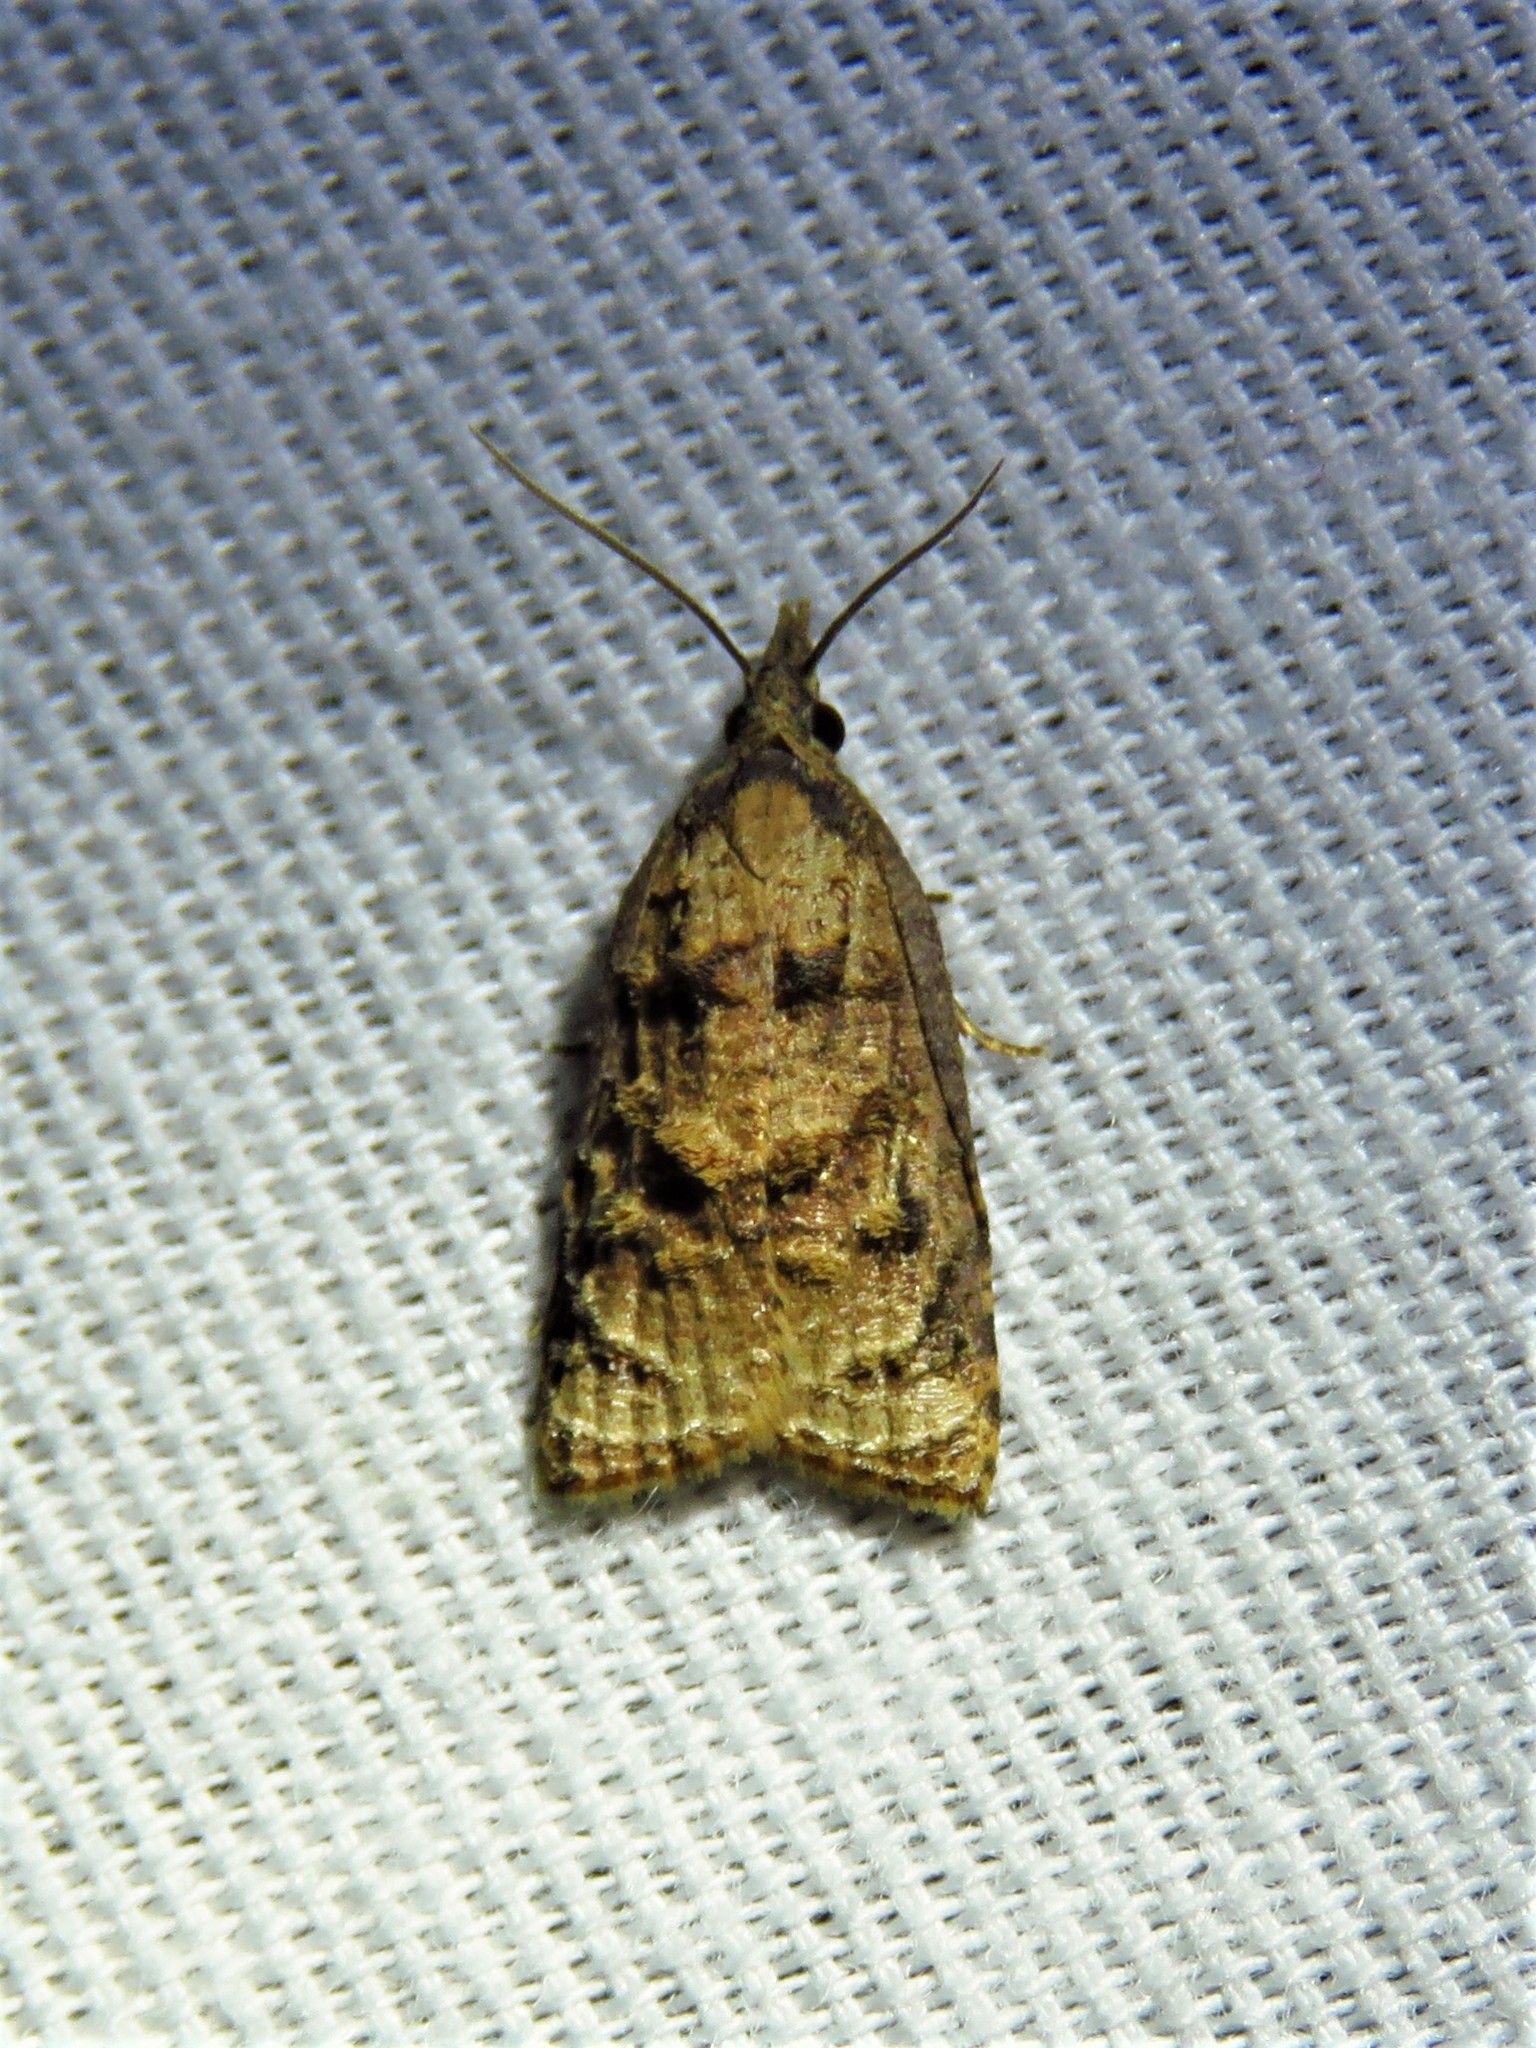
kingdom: Animalia
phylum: Arthropoda
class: Insecta
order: Lepidoptera
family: Tortricidae
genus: Platynota
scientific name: Platynota rostrana
